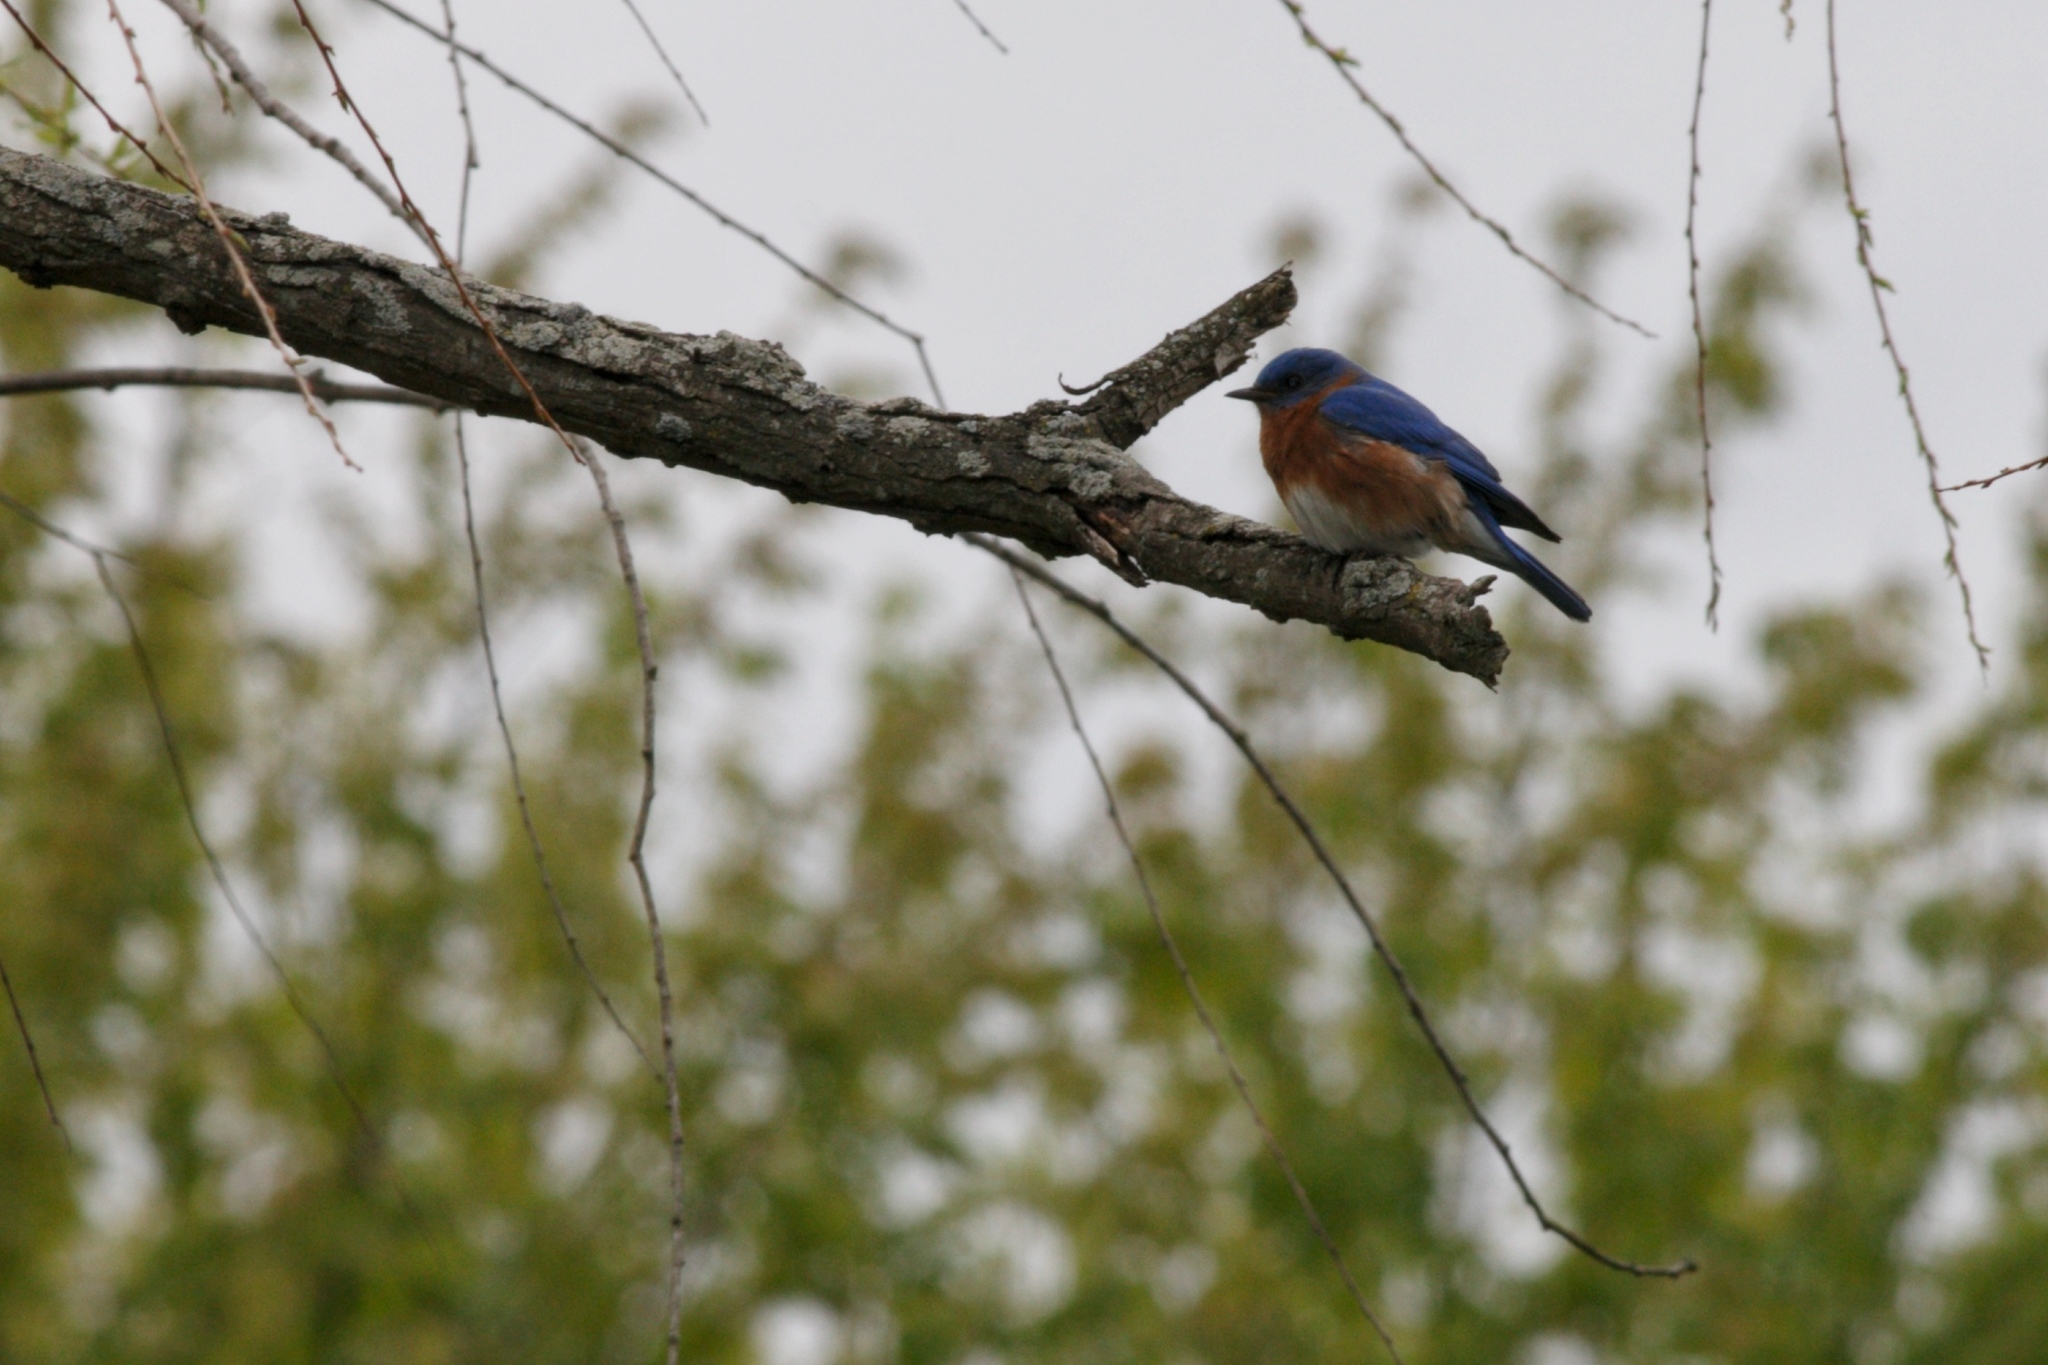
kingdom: Animalia
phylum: Chordata
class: Aves
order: Passeriformes
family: Turdidae
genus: Sialia
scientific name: Sialia sialis
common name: Eastern bluebird
